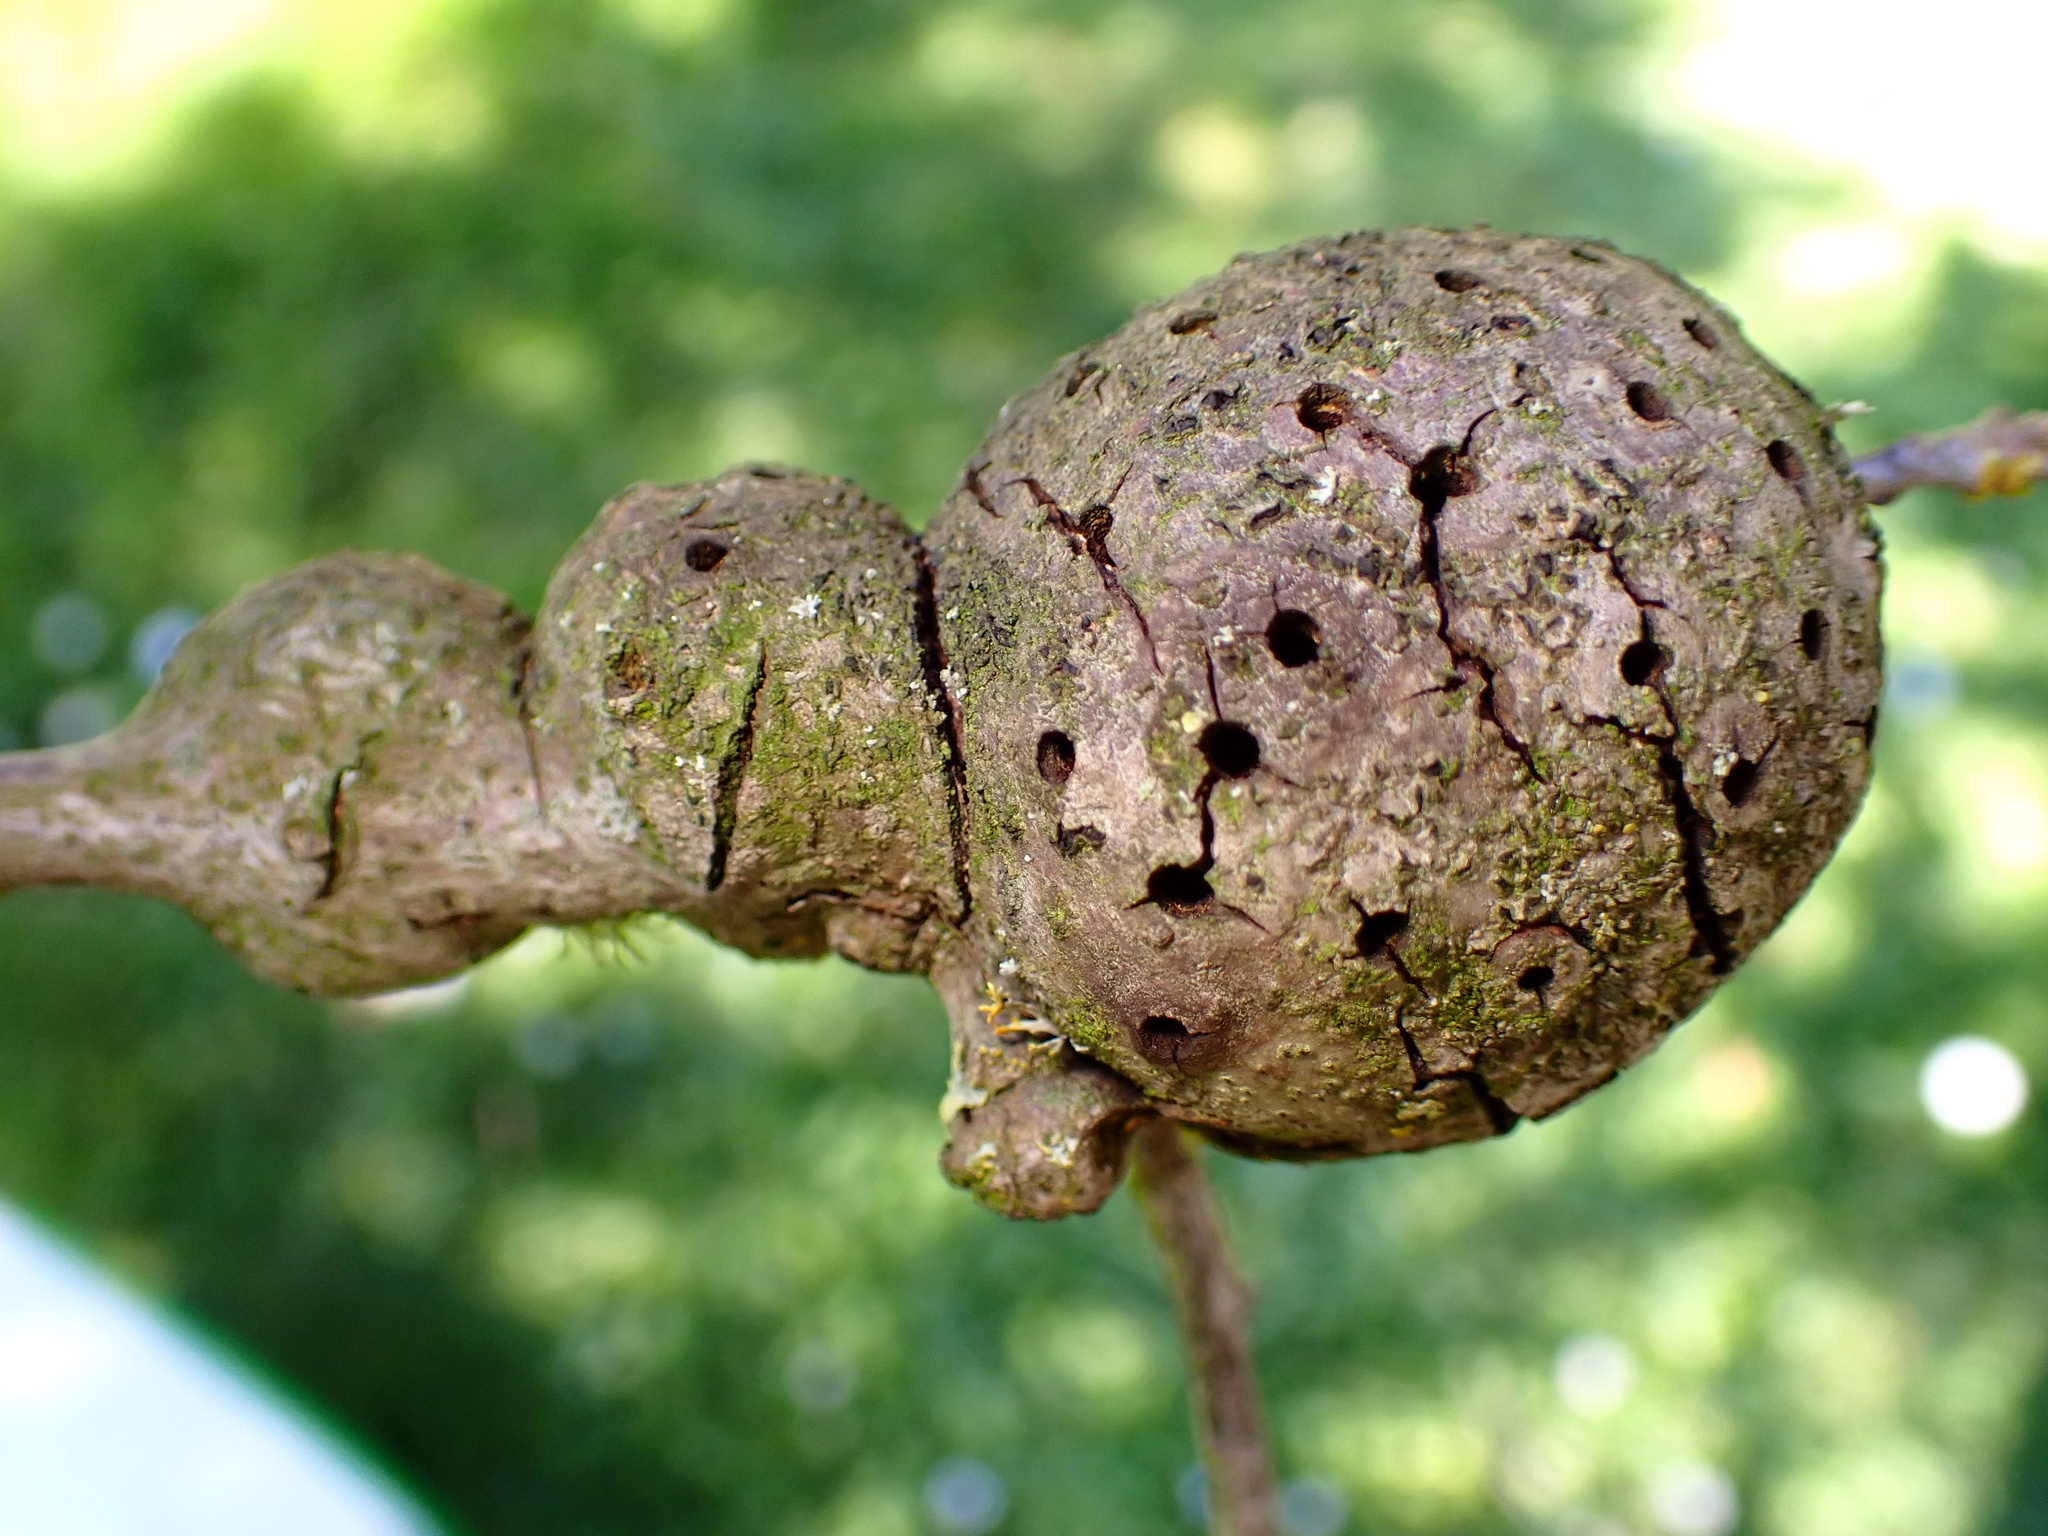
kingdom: Animalia
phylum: Arthropoda
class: Insecta
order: Hymenoptera
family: Cynipidae
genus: Callirhytis
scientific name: Callirhytis
